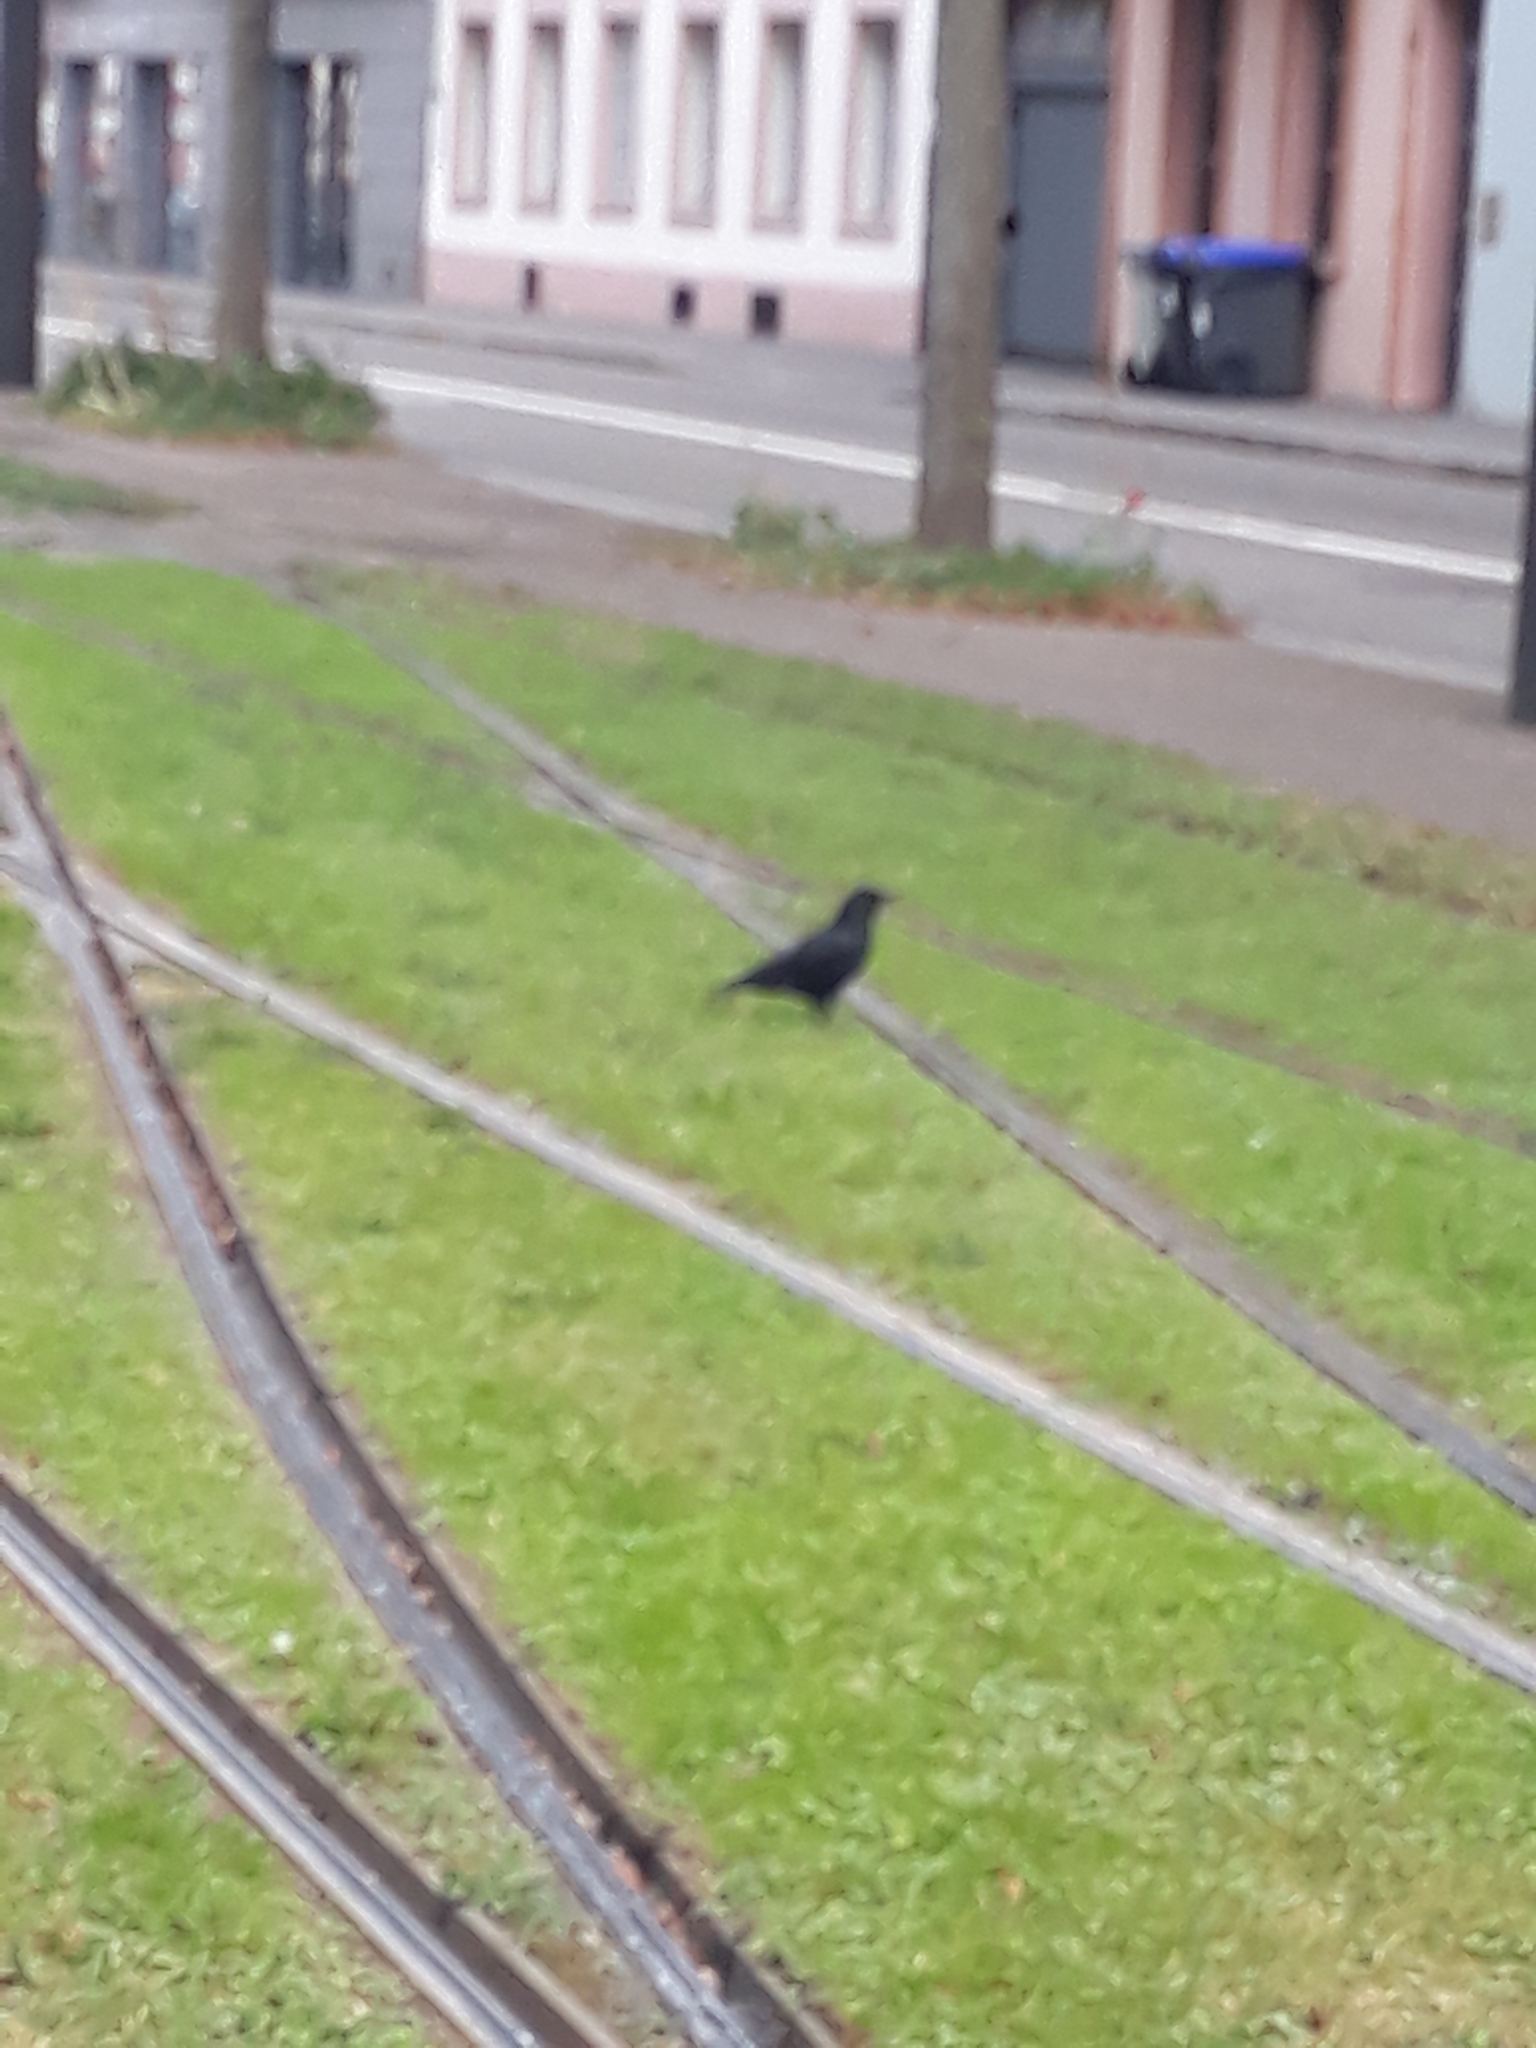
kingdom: Animalia
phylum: Chordata
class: Aves
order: Passeriformes
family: Corvidae
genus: Corvus
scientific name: Corvus corone
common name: Carrion crow
